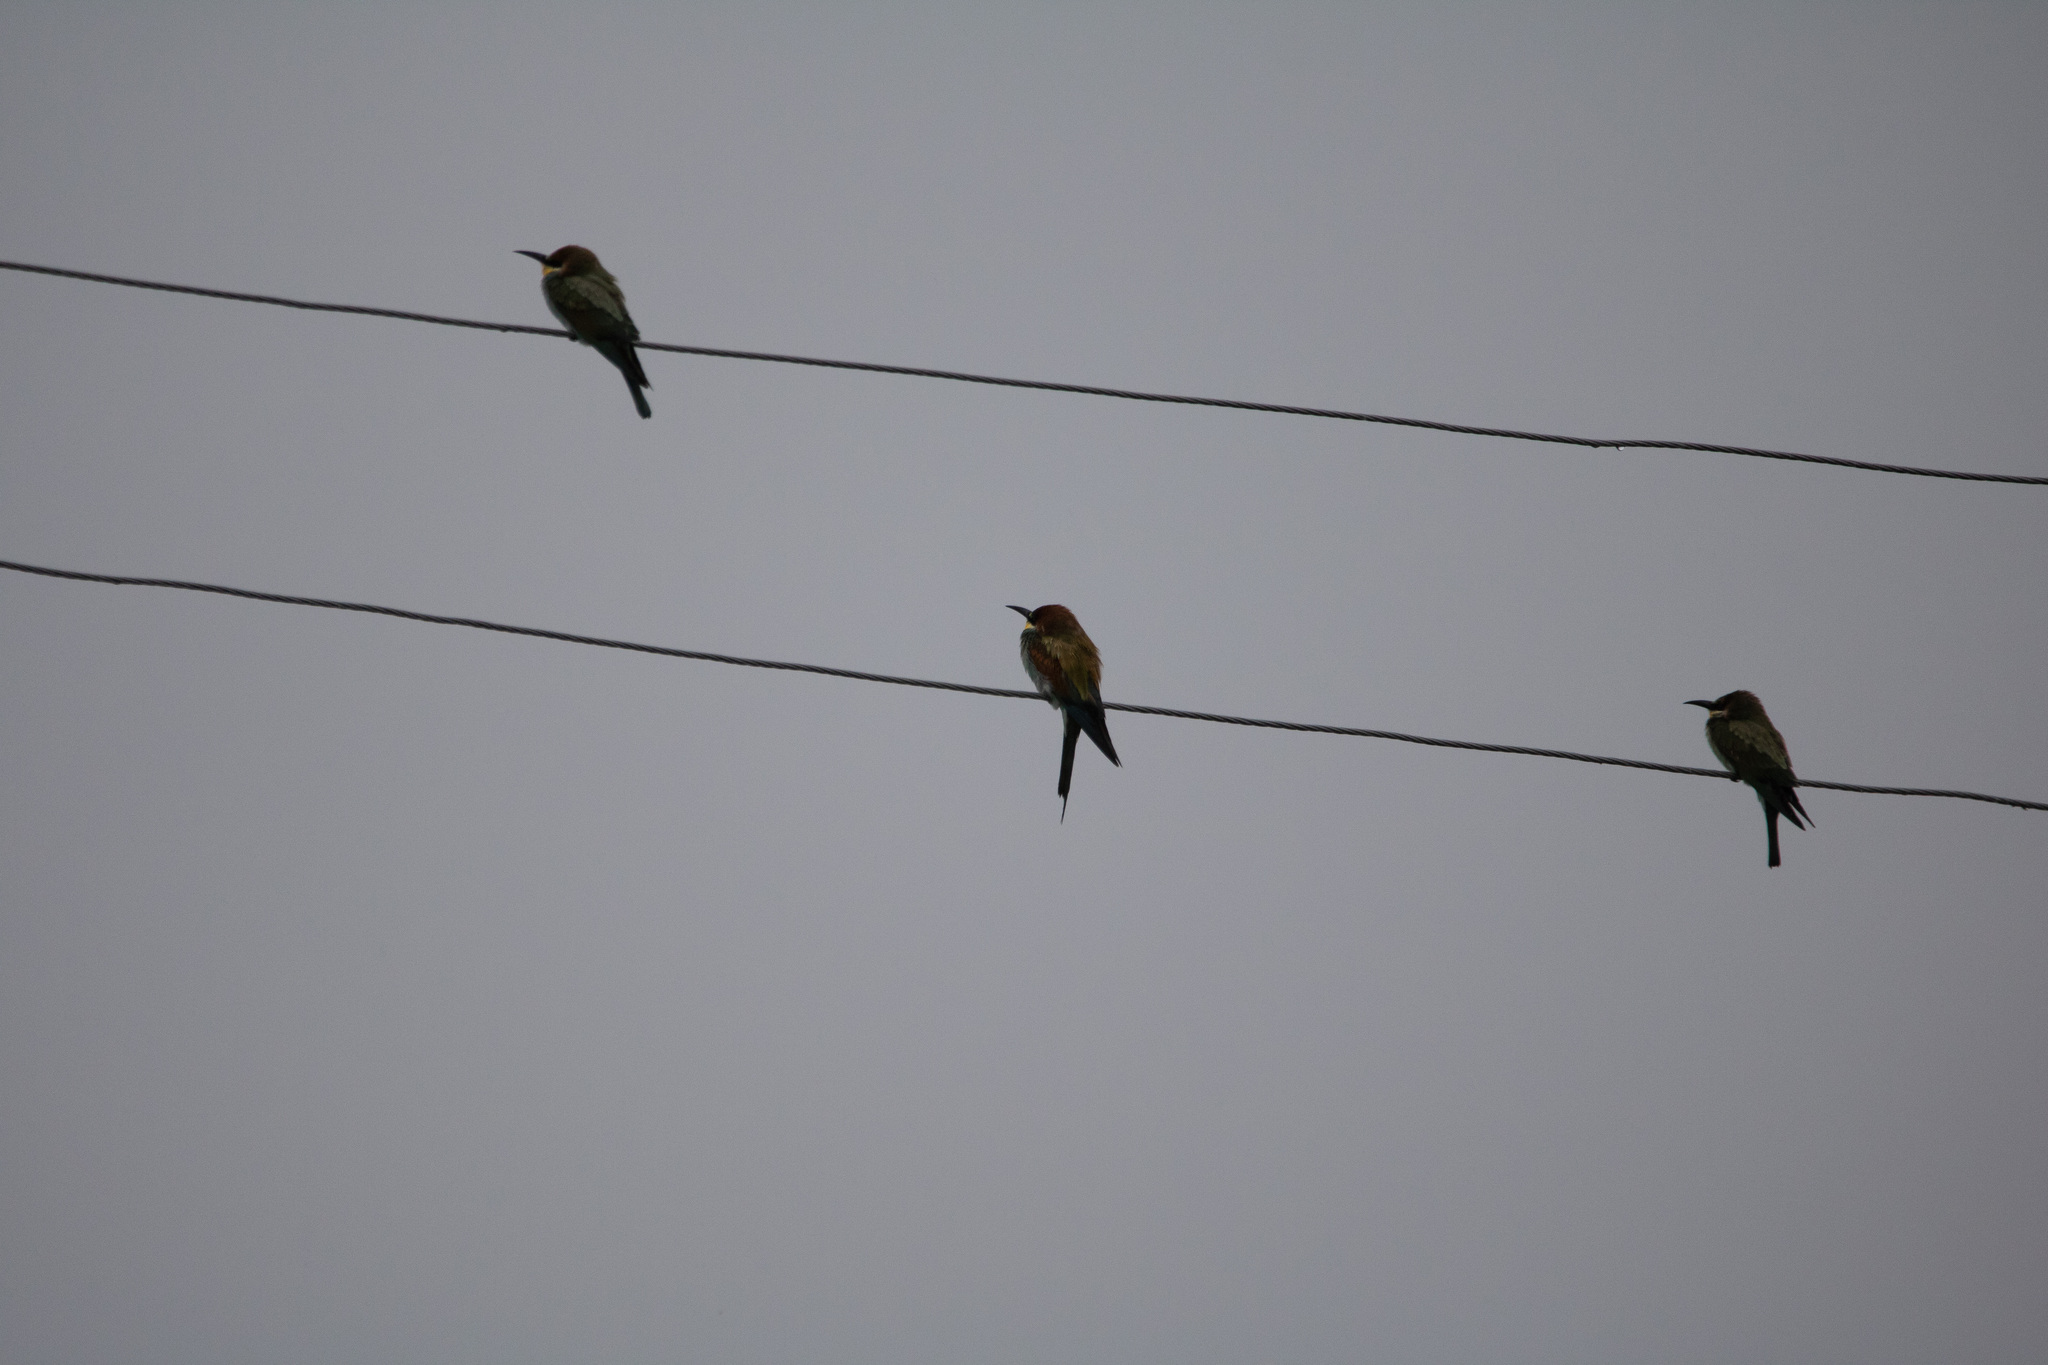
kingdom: Animalia
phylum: Chordata
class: Aves
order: Coraciiformes
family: Meropidae
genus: Merops
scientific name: Merops apiaster
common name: European bee-eater
